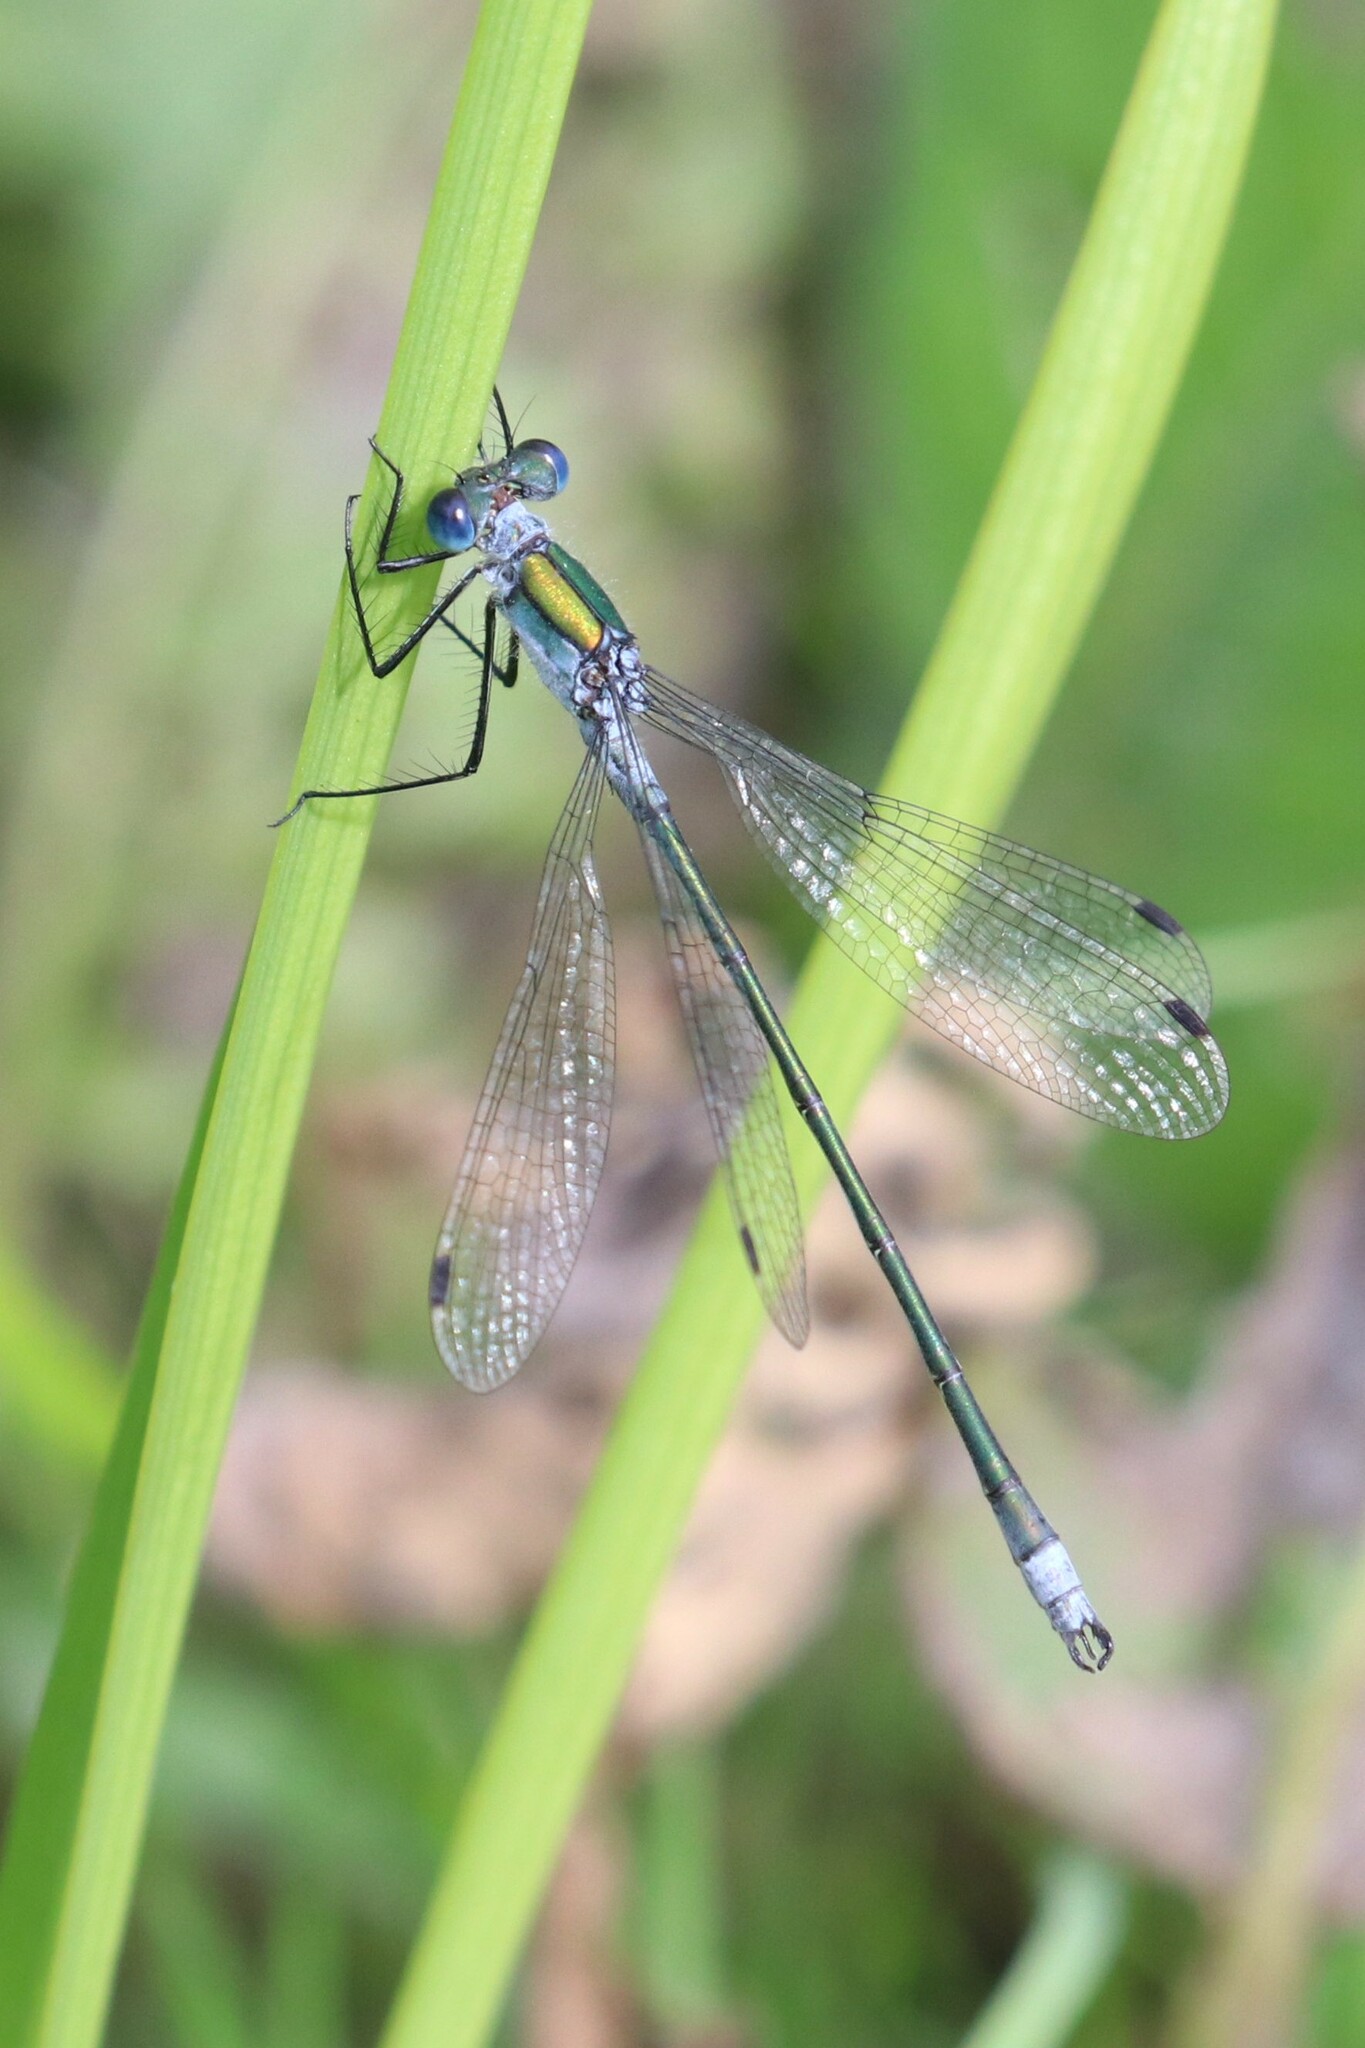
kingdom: Animalia
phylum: Arthropoda
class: Insecta
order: Odonata
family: Lestidae
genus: Lestes
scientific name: Lestes sponsa
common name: Common spreadwing
